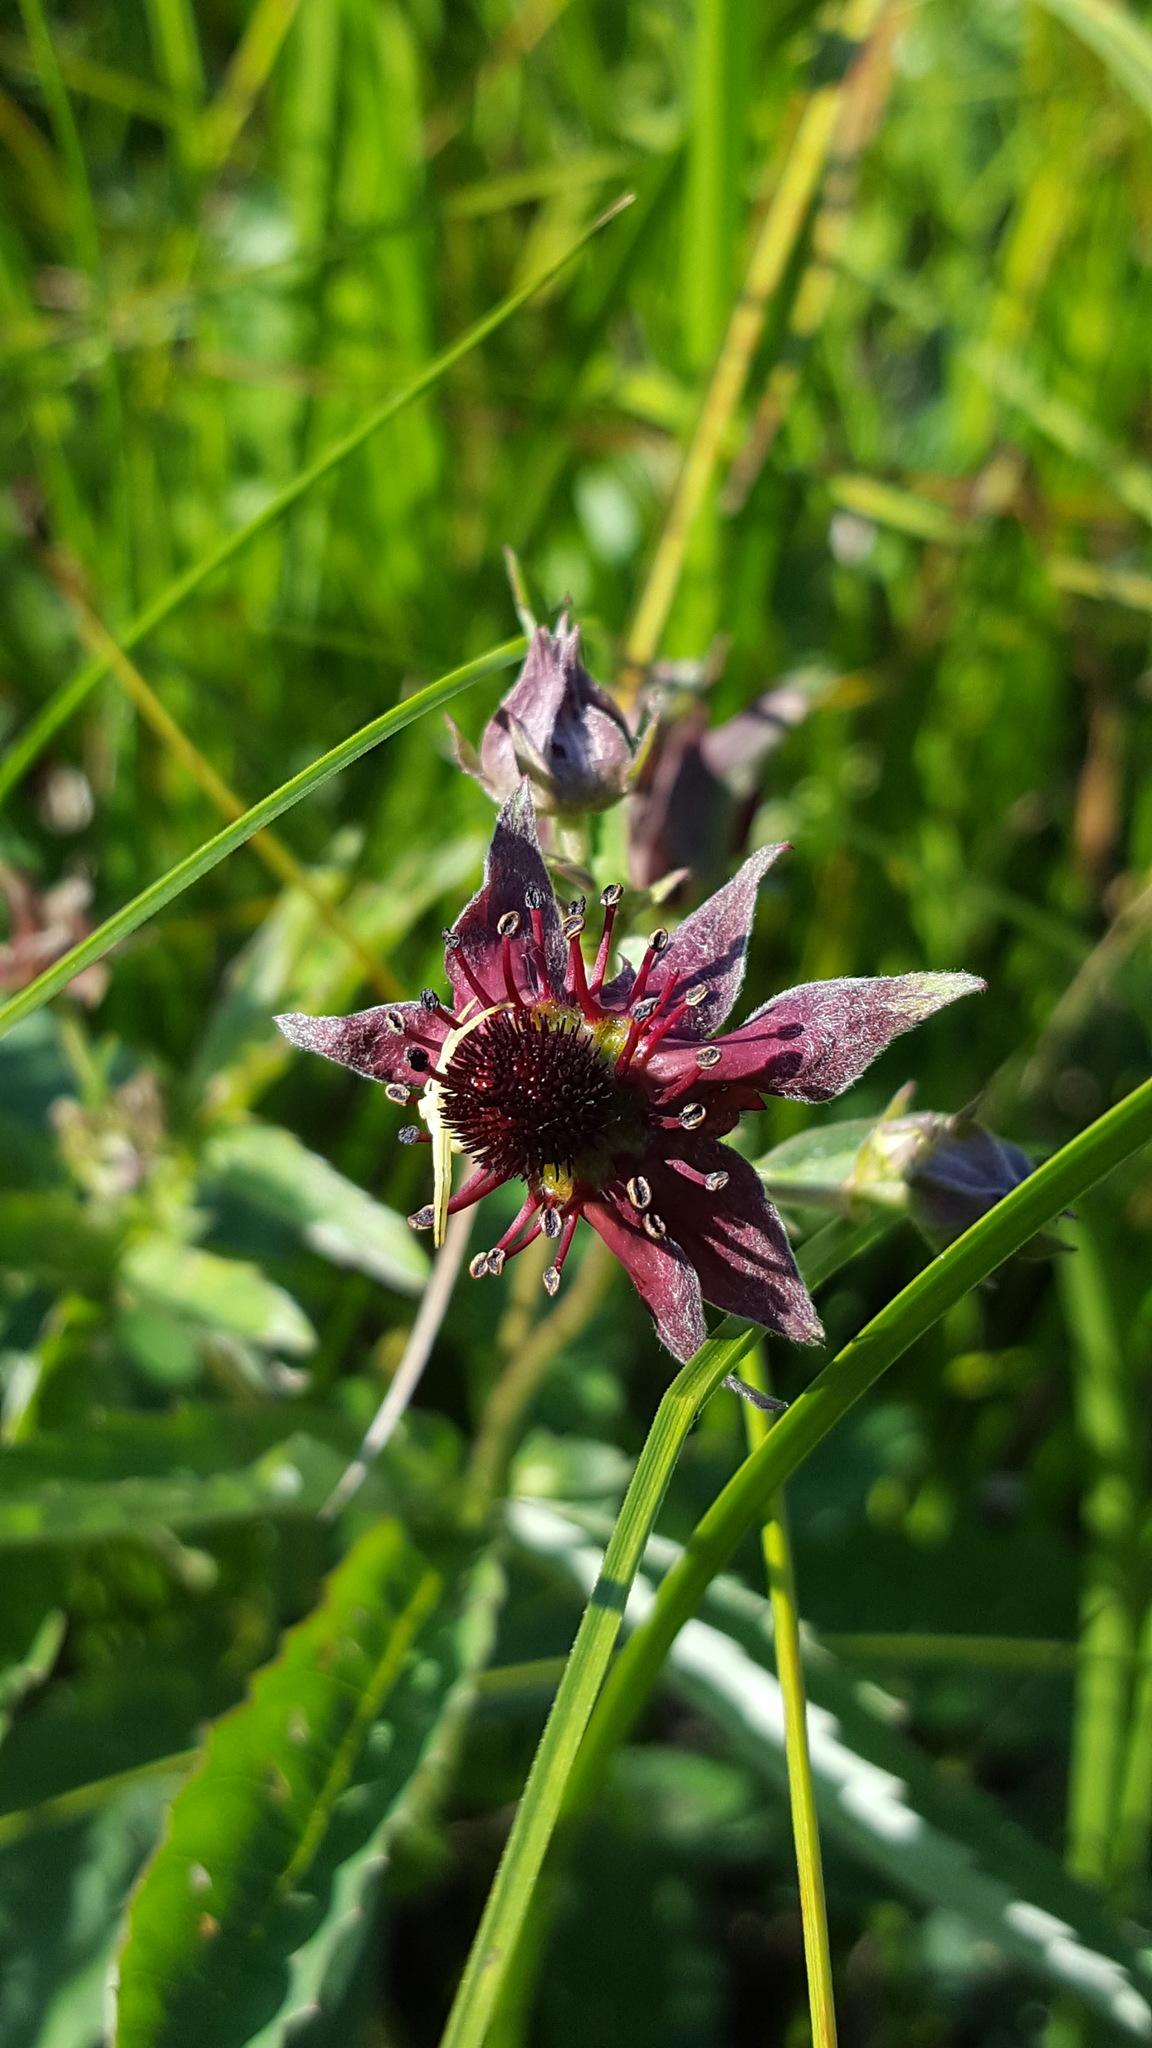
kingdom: Plantae
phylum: Tracheophyta
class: Magnoliopsida
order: Rosales
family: Rosaceae
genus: Comarum
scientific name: Comarum palustre
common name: Marsh cinquefoil
